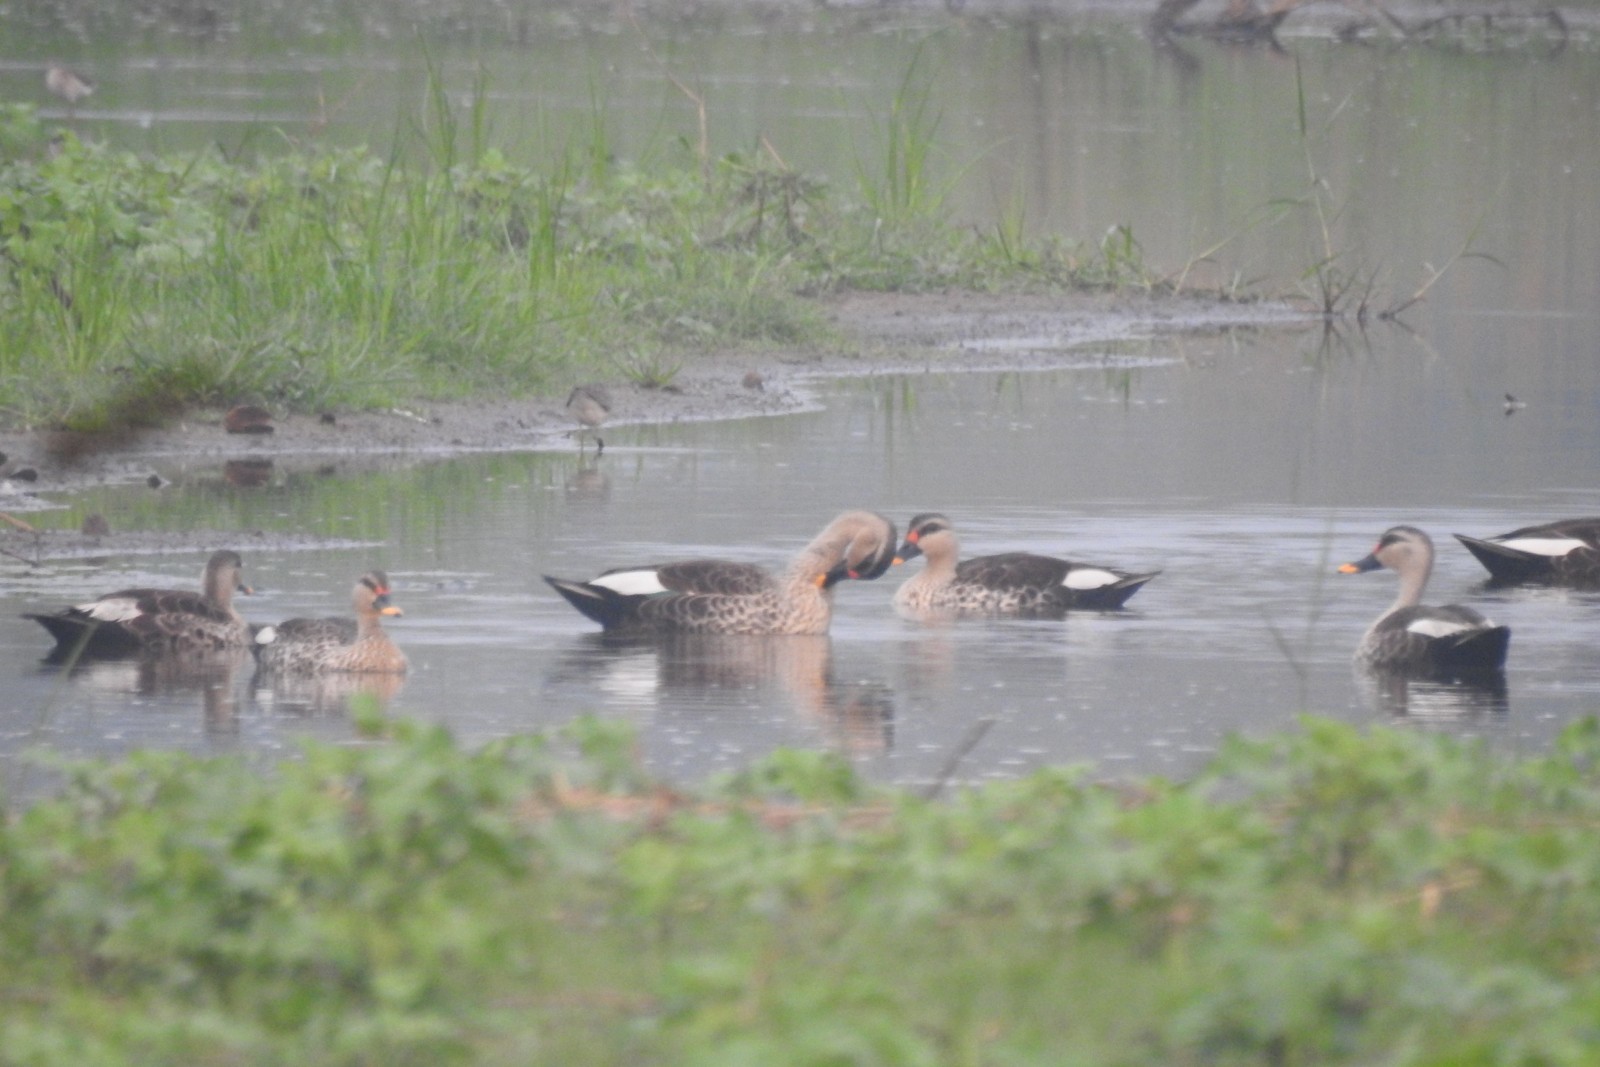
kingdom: Animalia
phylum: Chordata
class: Aves
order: Anseriformes
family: Anatidae
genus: Anas
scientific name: Anas poecilorhyncha
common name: Indian spot-billed duck
